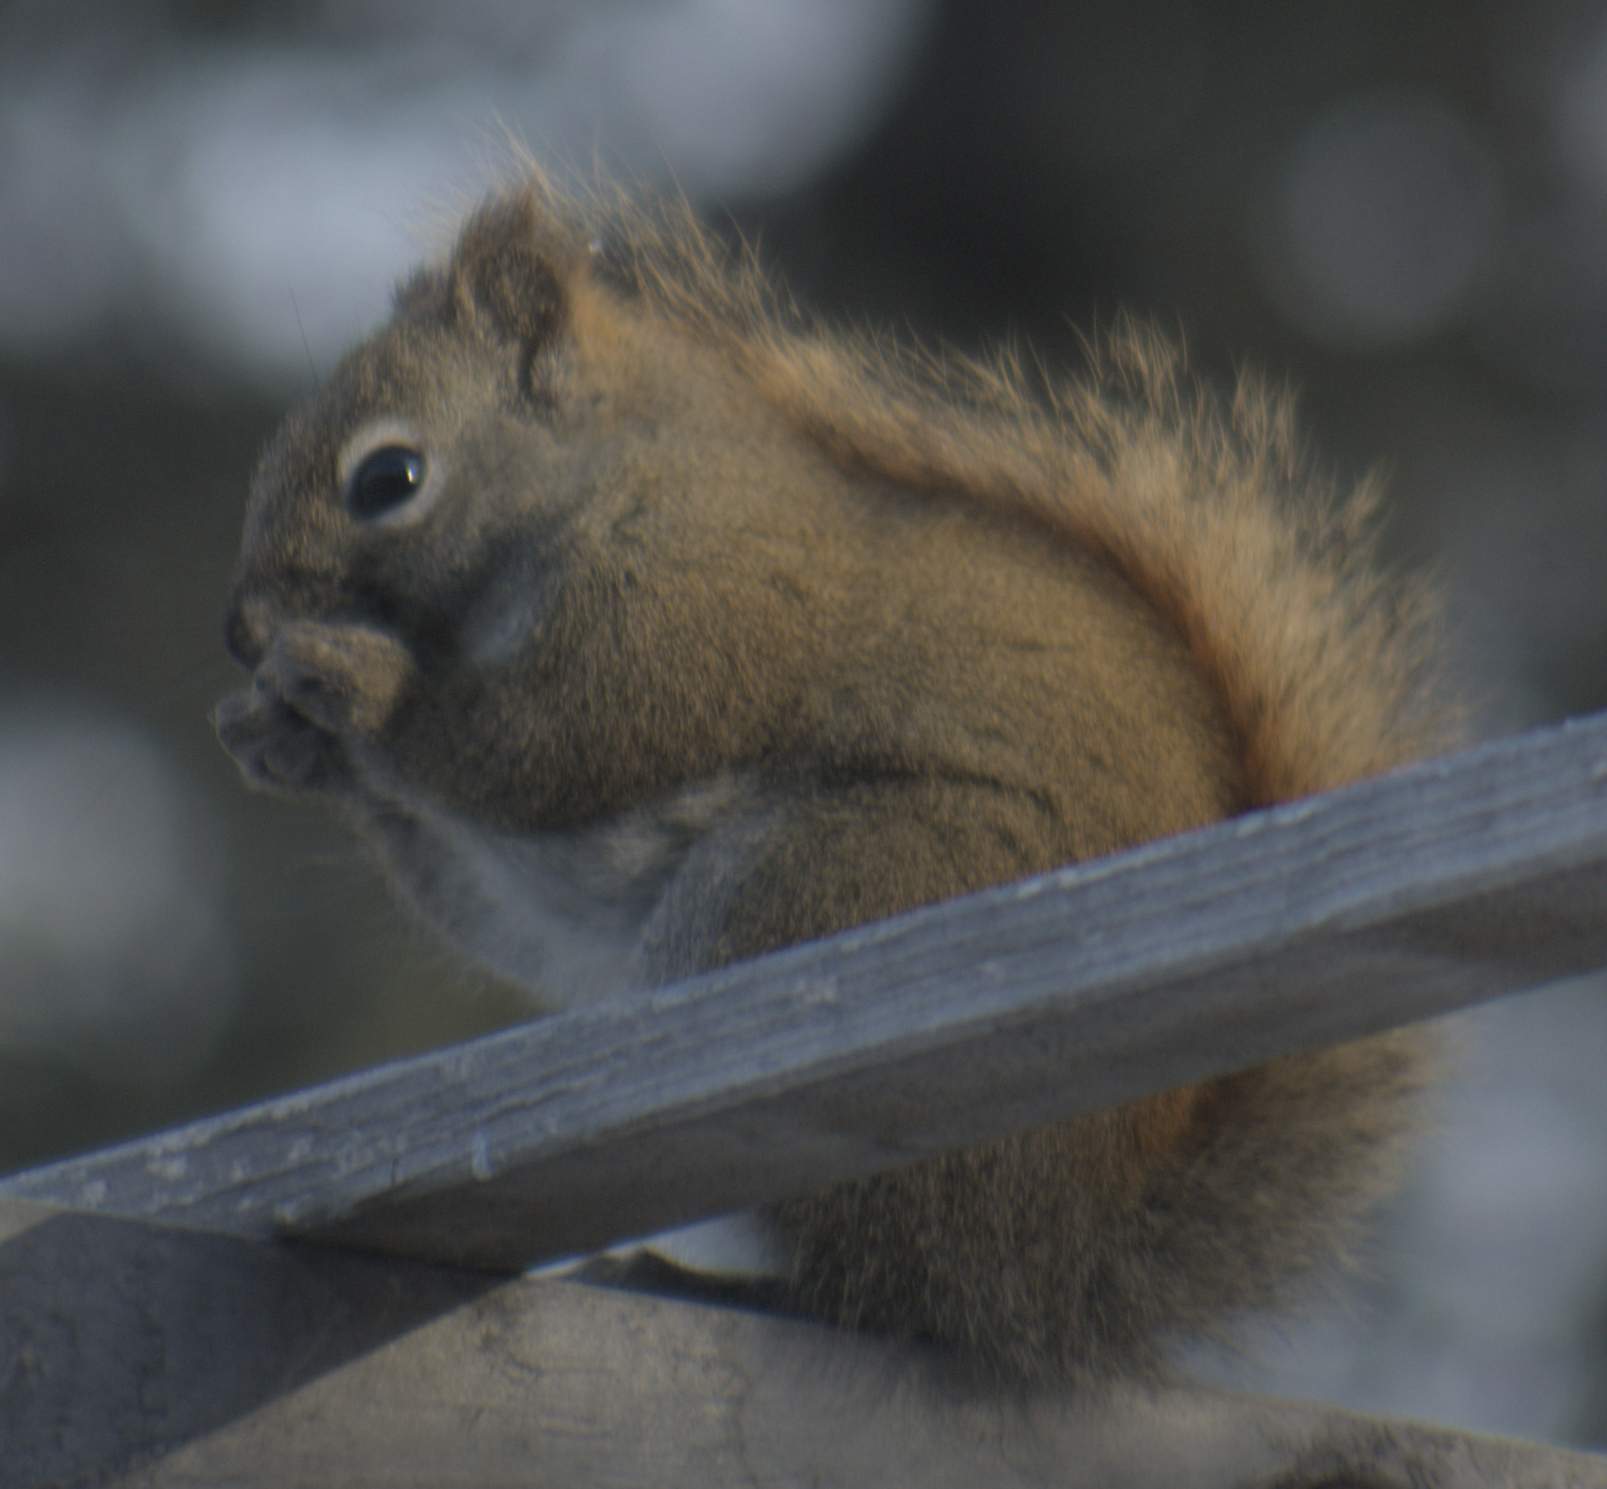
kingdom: Animalia
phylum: Chordata
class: Mammalia
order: Rodentia
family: Sciuridae
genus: Tamiasciurus
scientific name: Tamiasciurus hudsonicus
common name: Red squirrel
